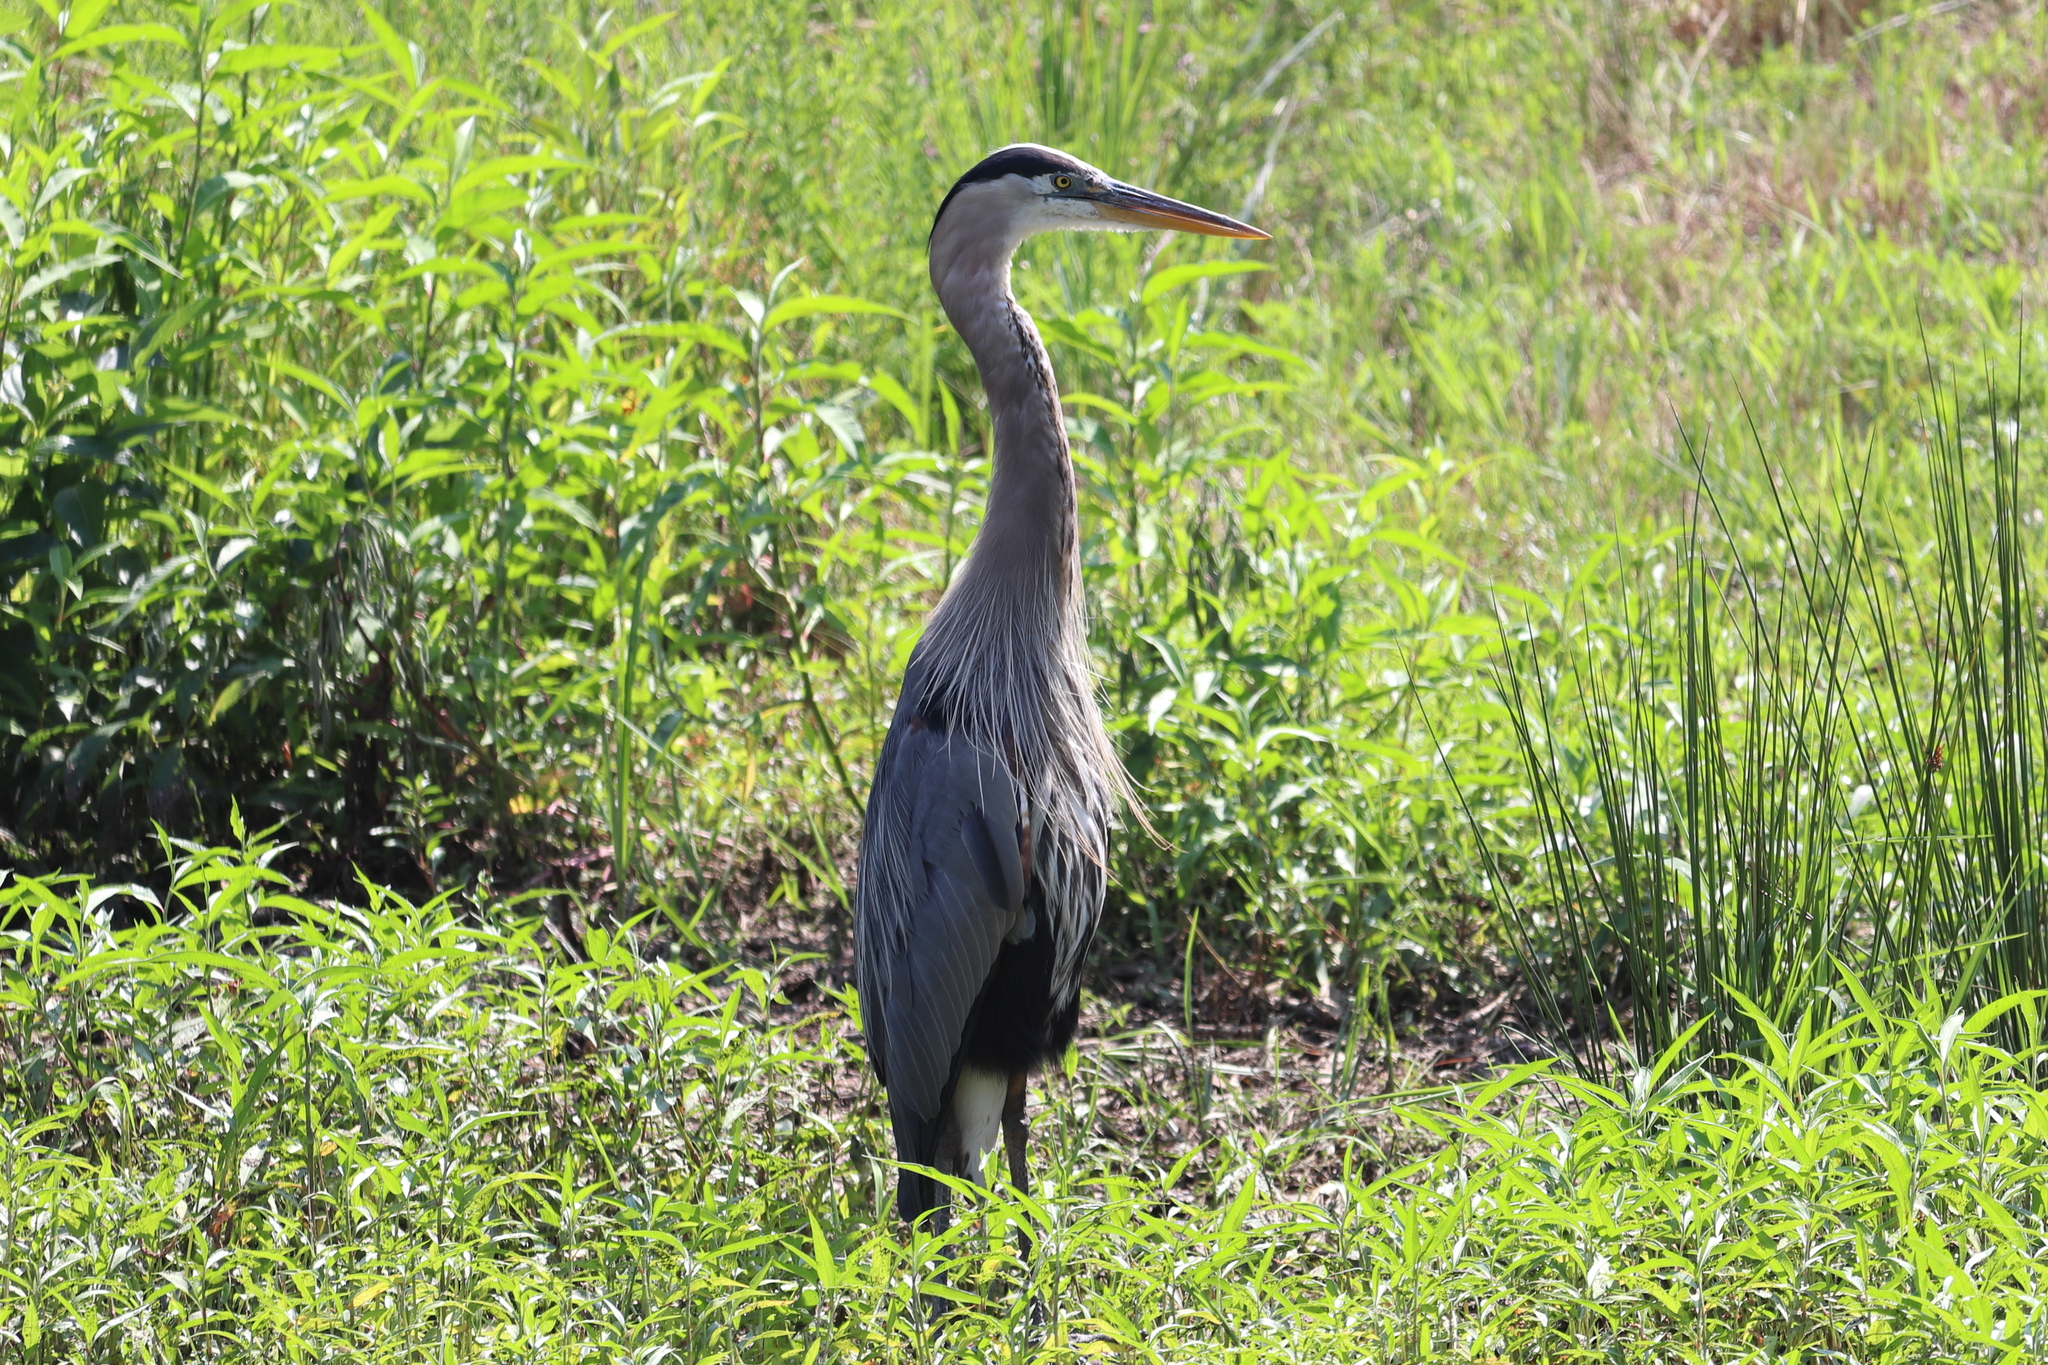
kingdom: Animalia
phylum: Chordata
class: Aves
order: Pelecaniformes
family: Ardeidae
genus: Ardea
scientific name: Ardea herodias
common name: Great blue heron
